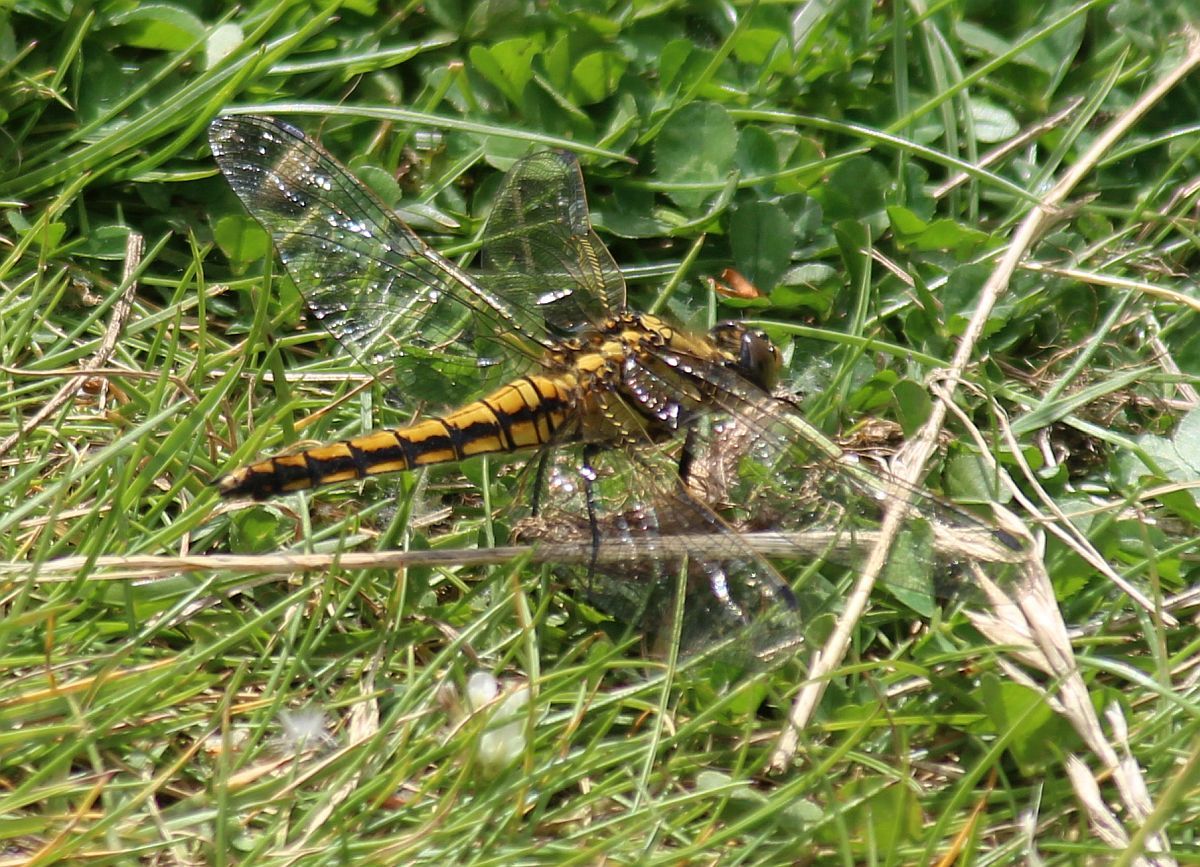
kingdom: Animalia
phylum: Arthropoda
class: Insecta
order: Odonata
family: Libellulidae
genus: Orthetrum
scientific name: Orthetrum cancellatum
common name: Black-tailed skimmer
